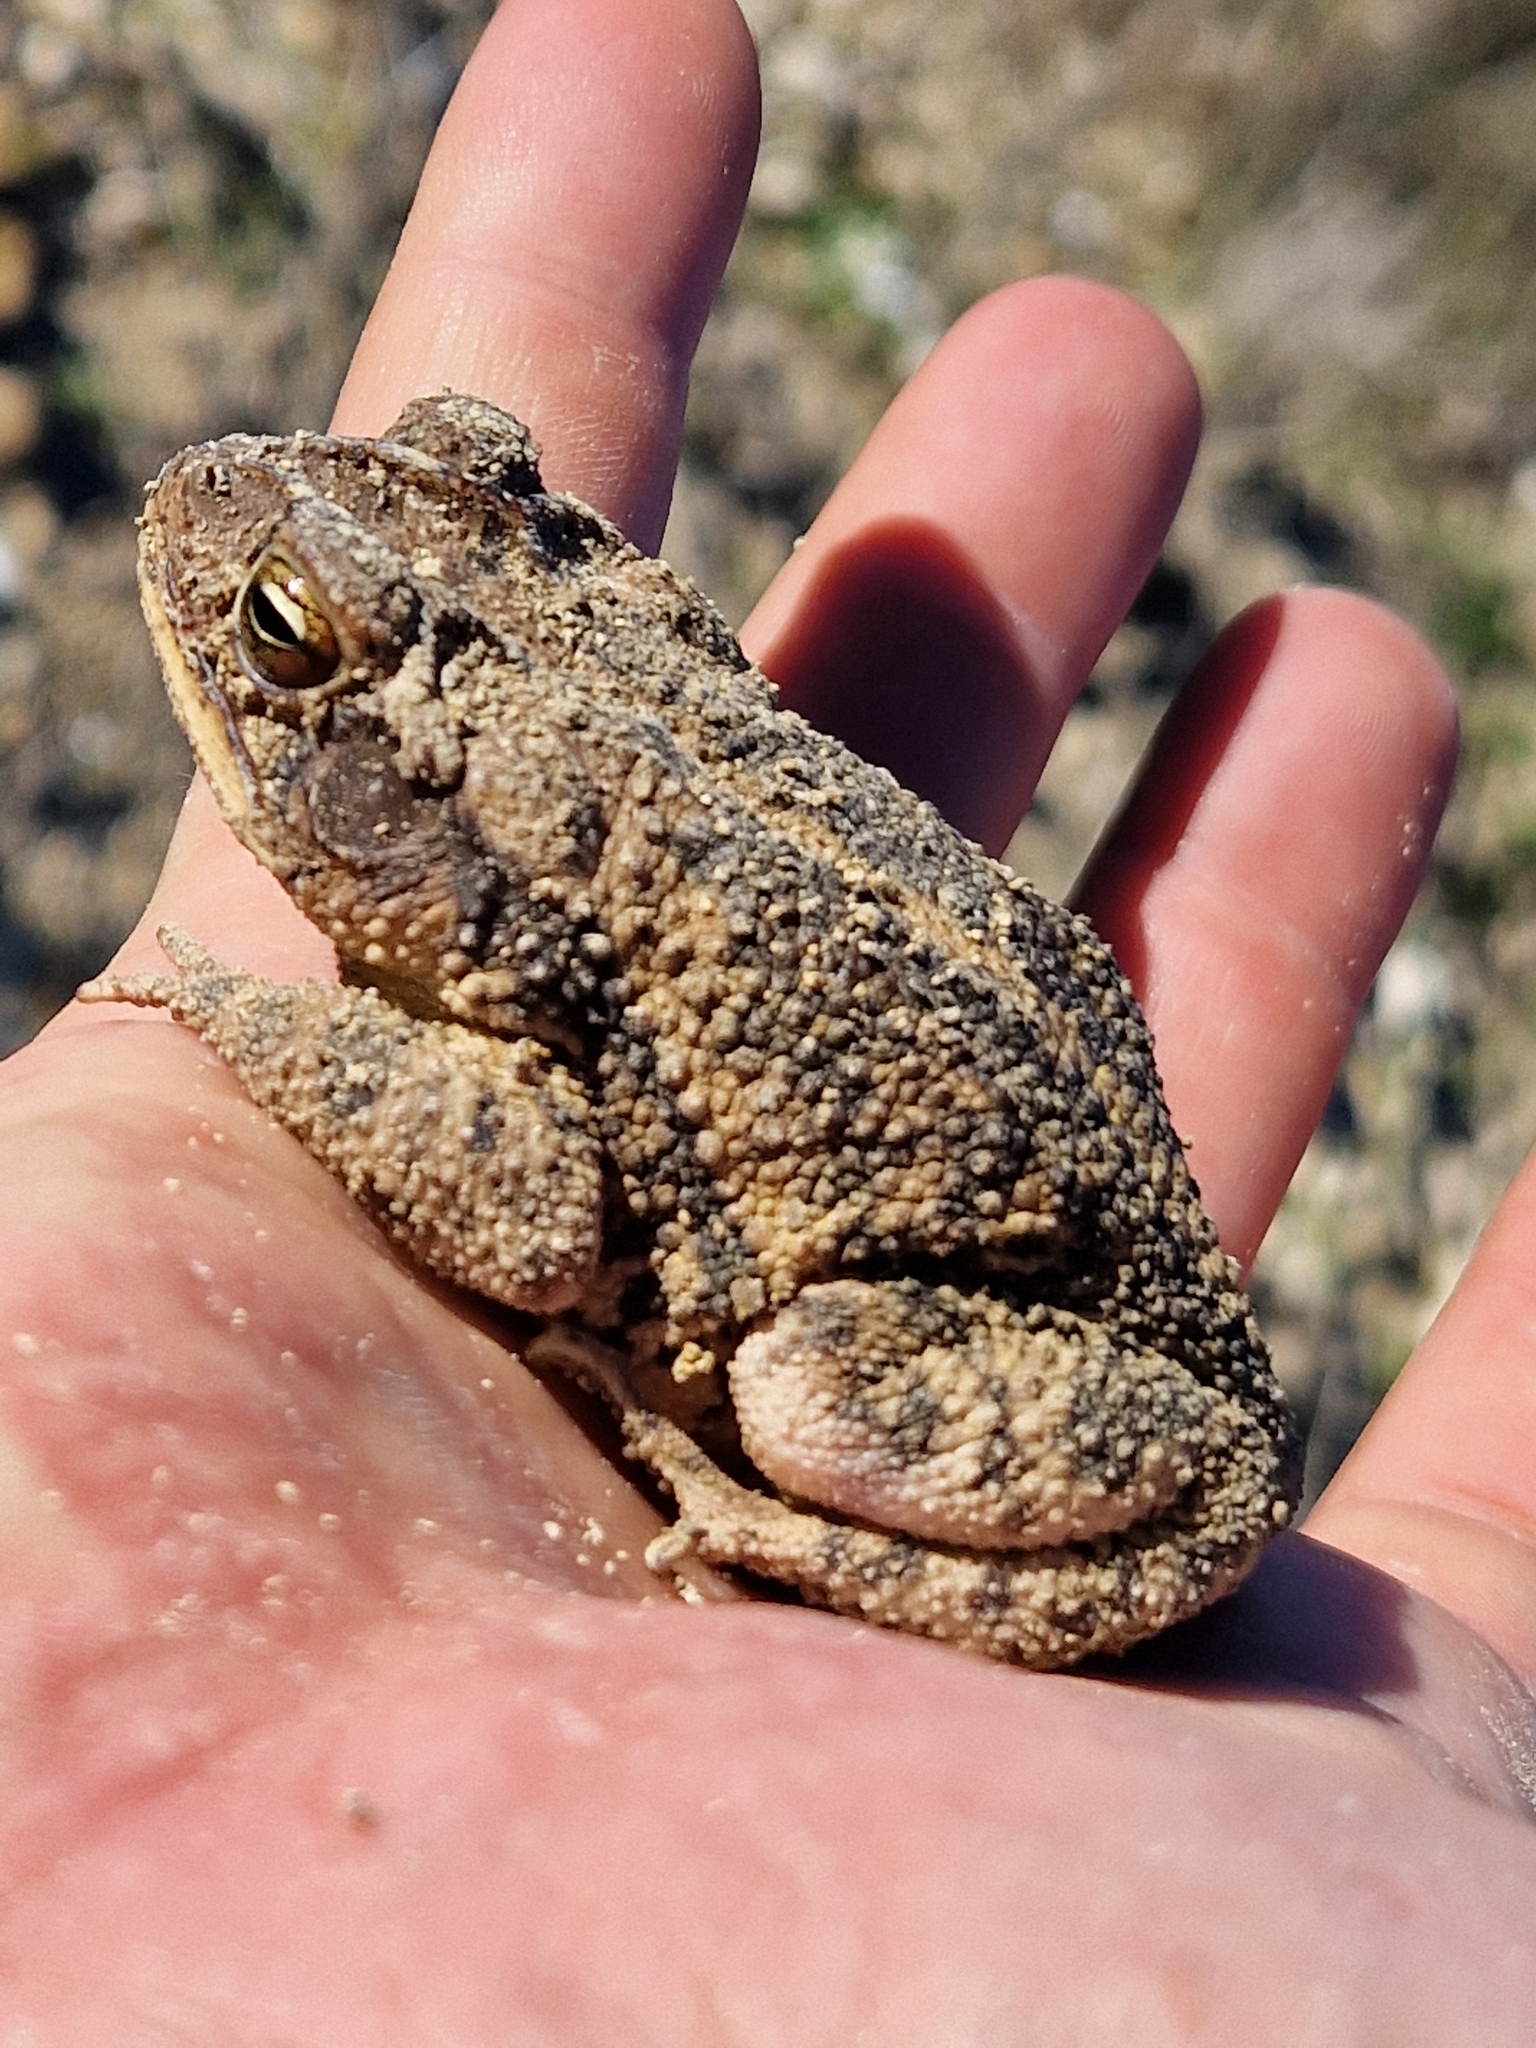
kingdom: Animalia
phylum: Chordata
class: Amphibia
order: Anura
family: Bufonidae
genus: Incilius
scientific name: Incilius nebulifer
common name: Gulf coast toad
